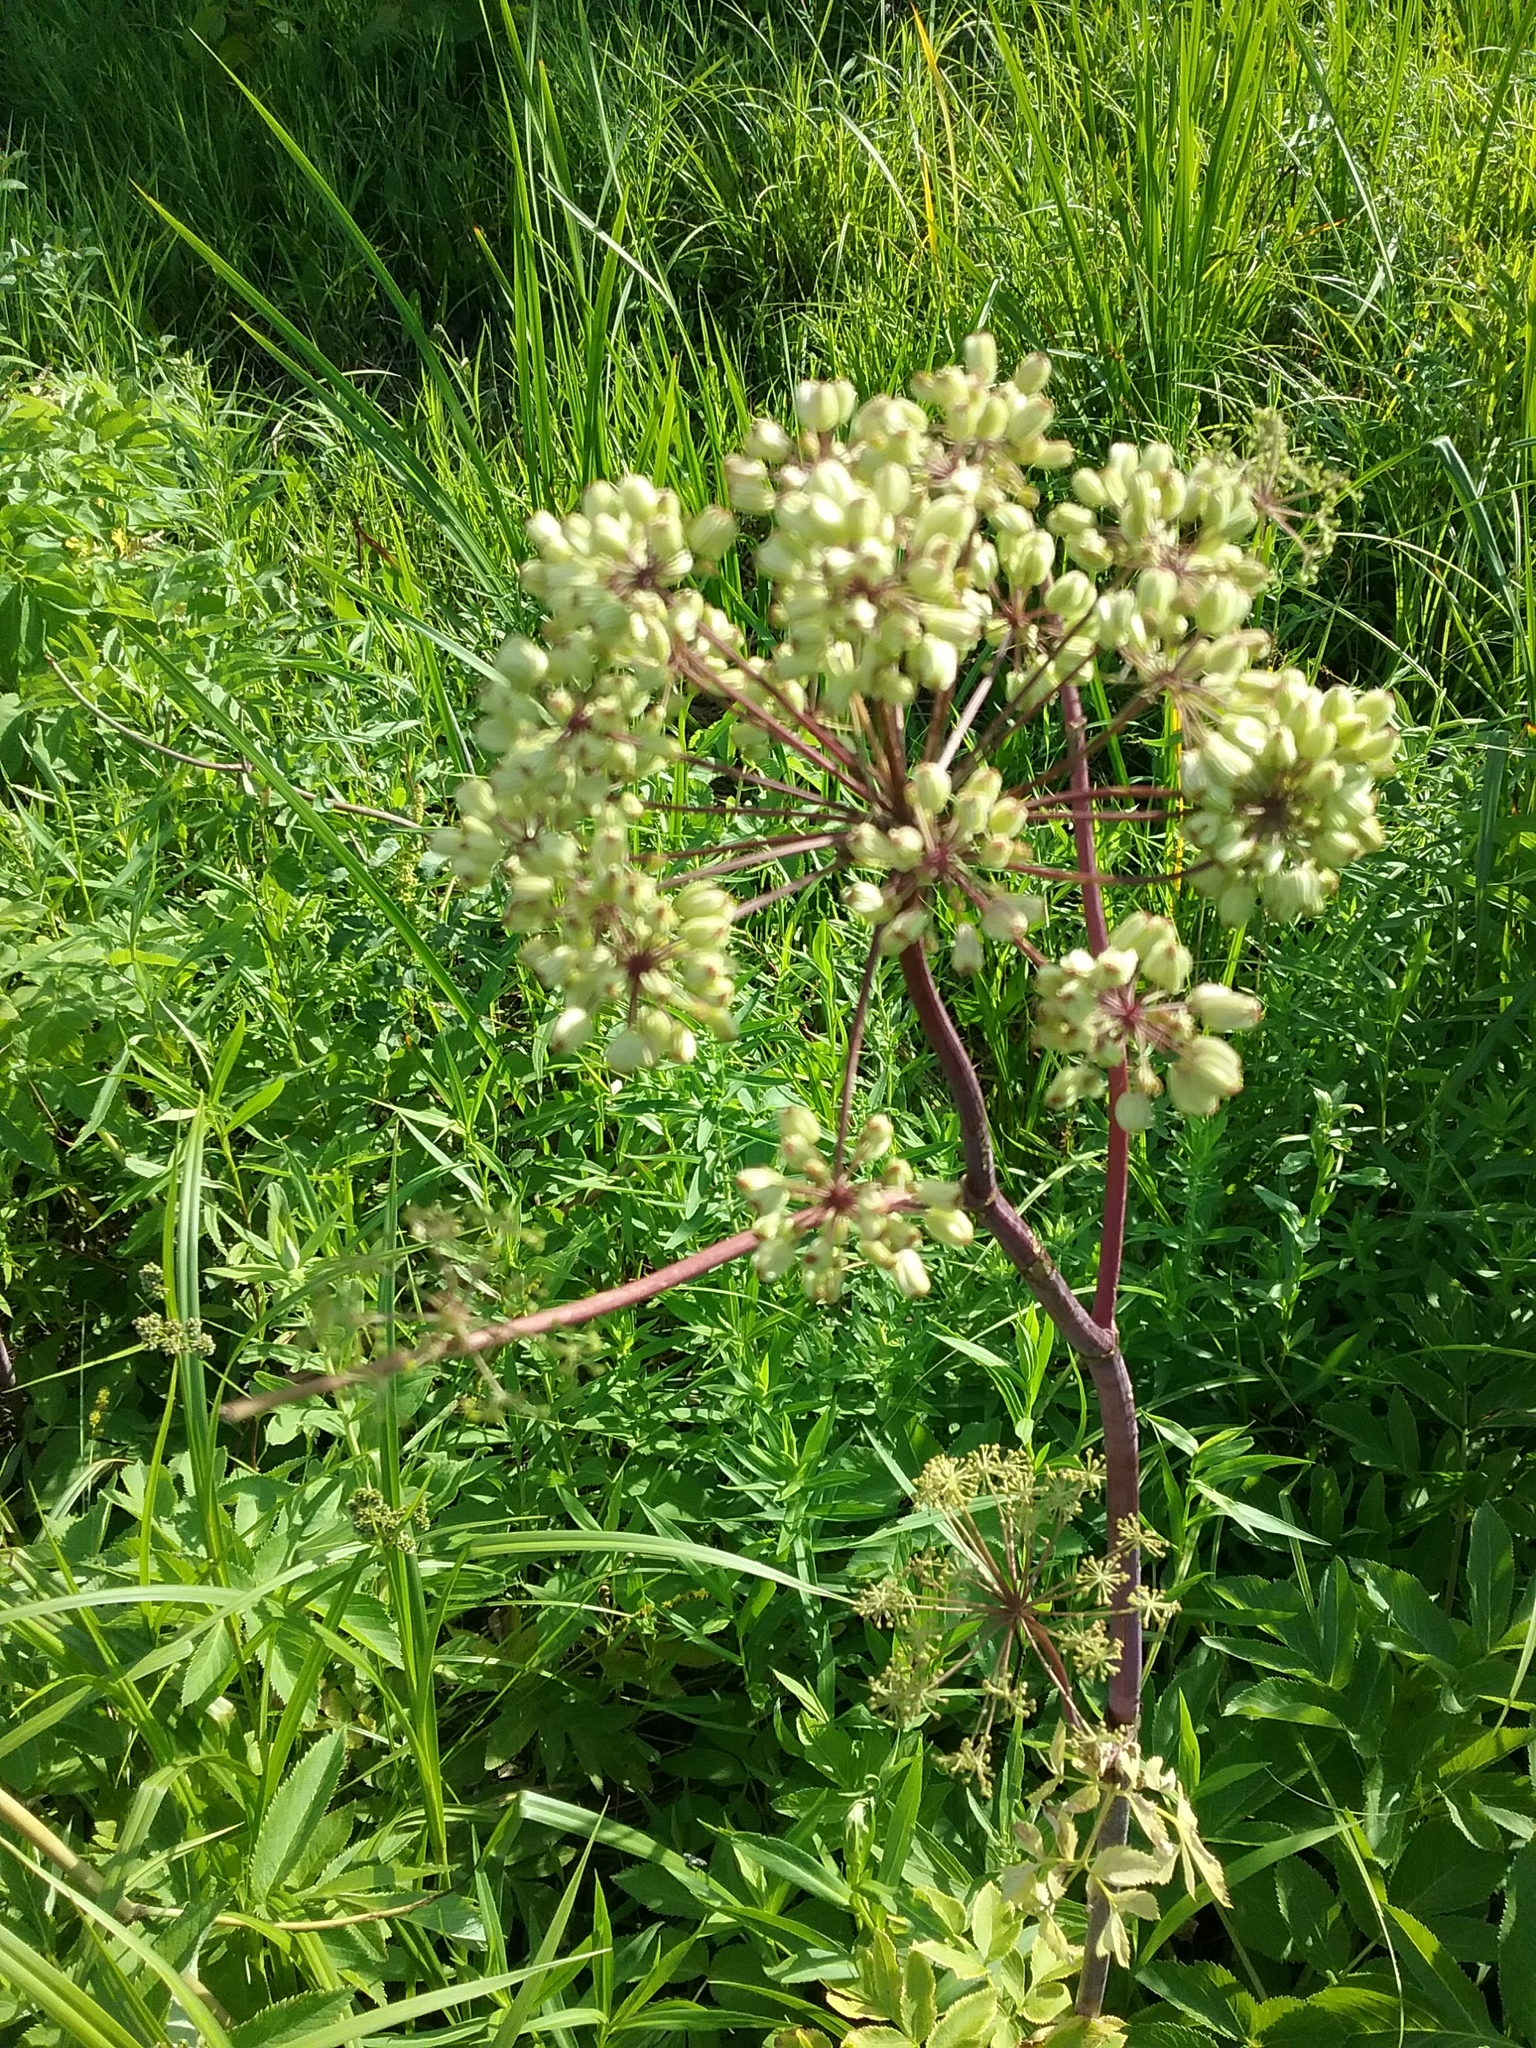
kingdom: Plantae
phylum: Tracheophyta
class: Magnoliopsida
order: Apiales
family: Apiaceae
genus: Angelica
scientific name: Angelica atropurpurea
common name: Great angelica
